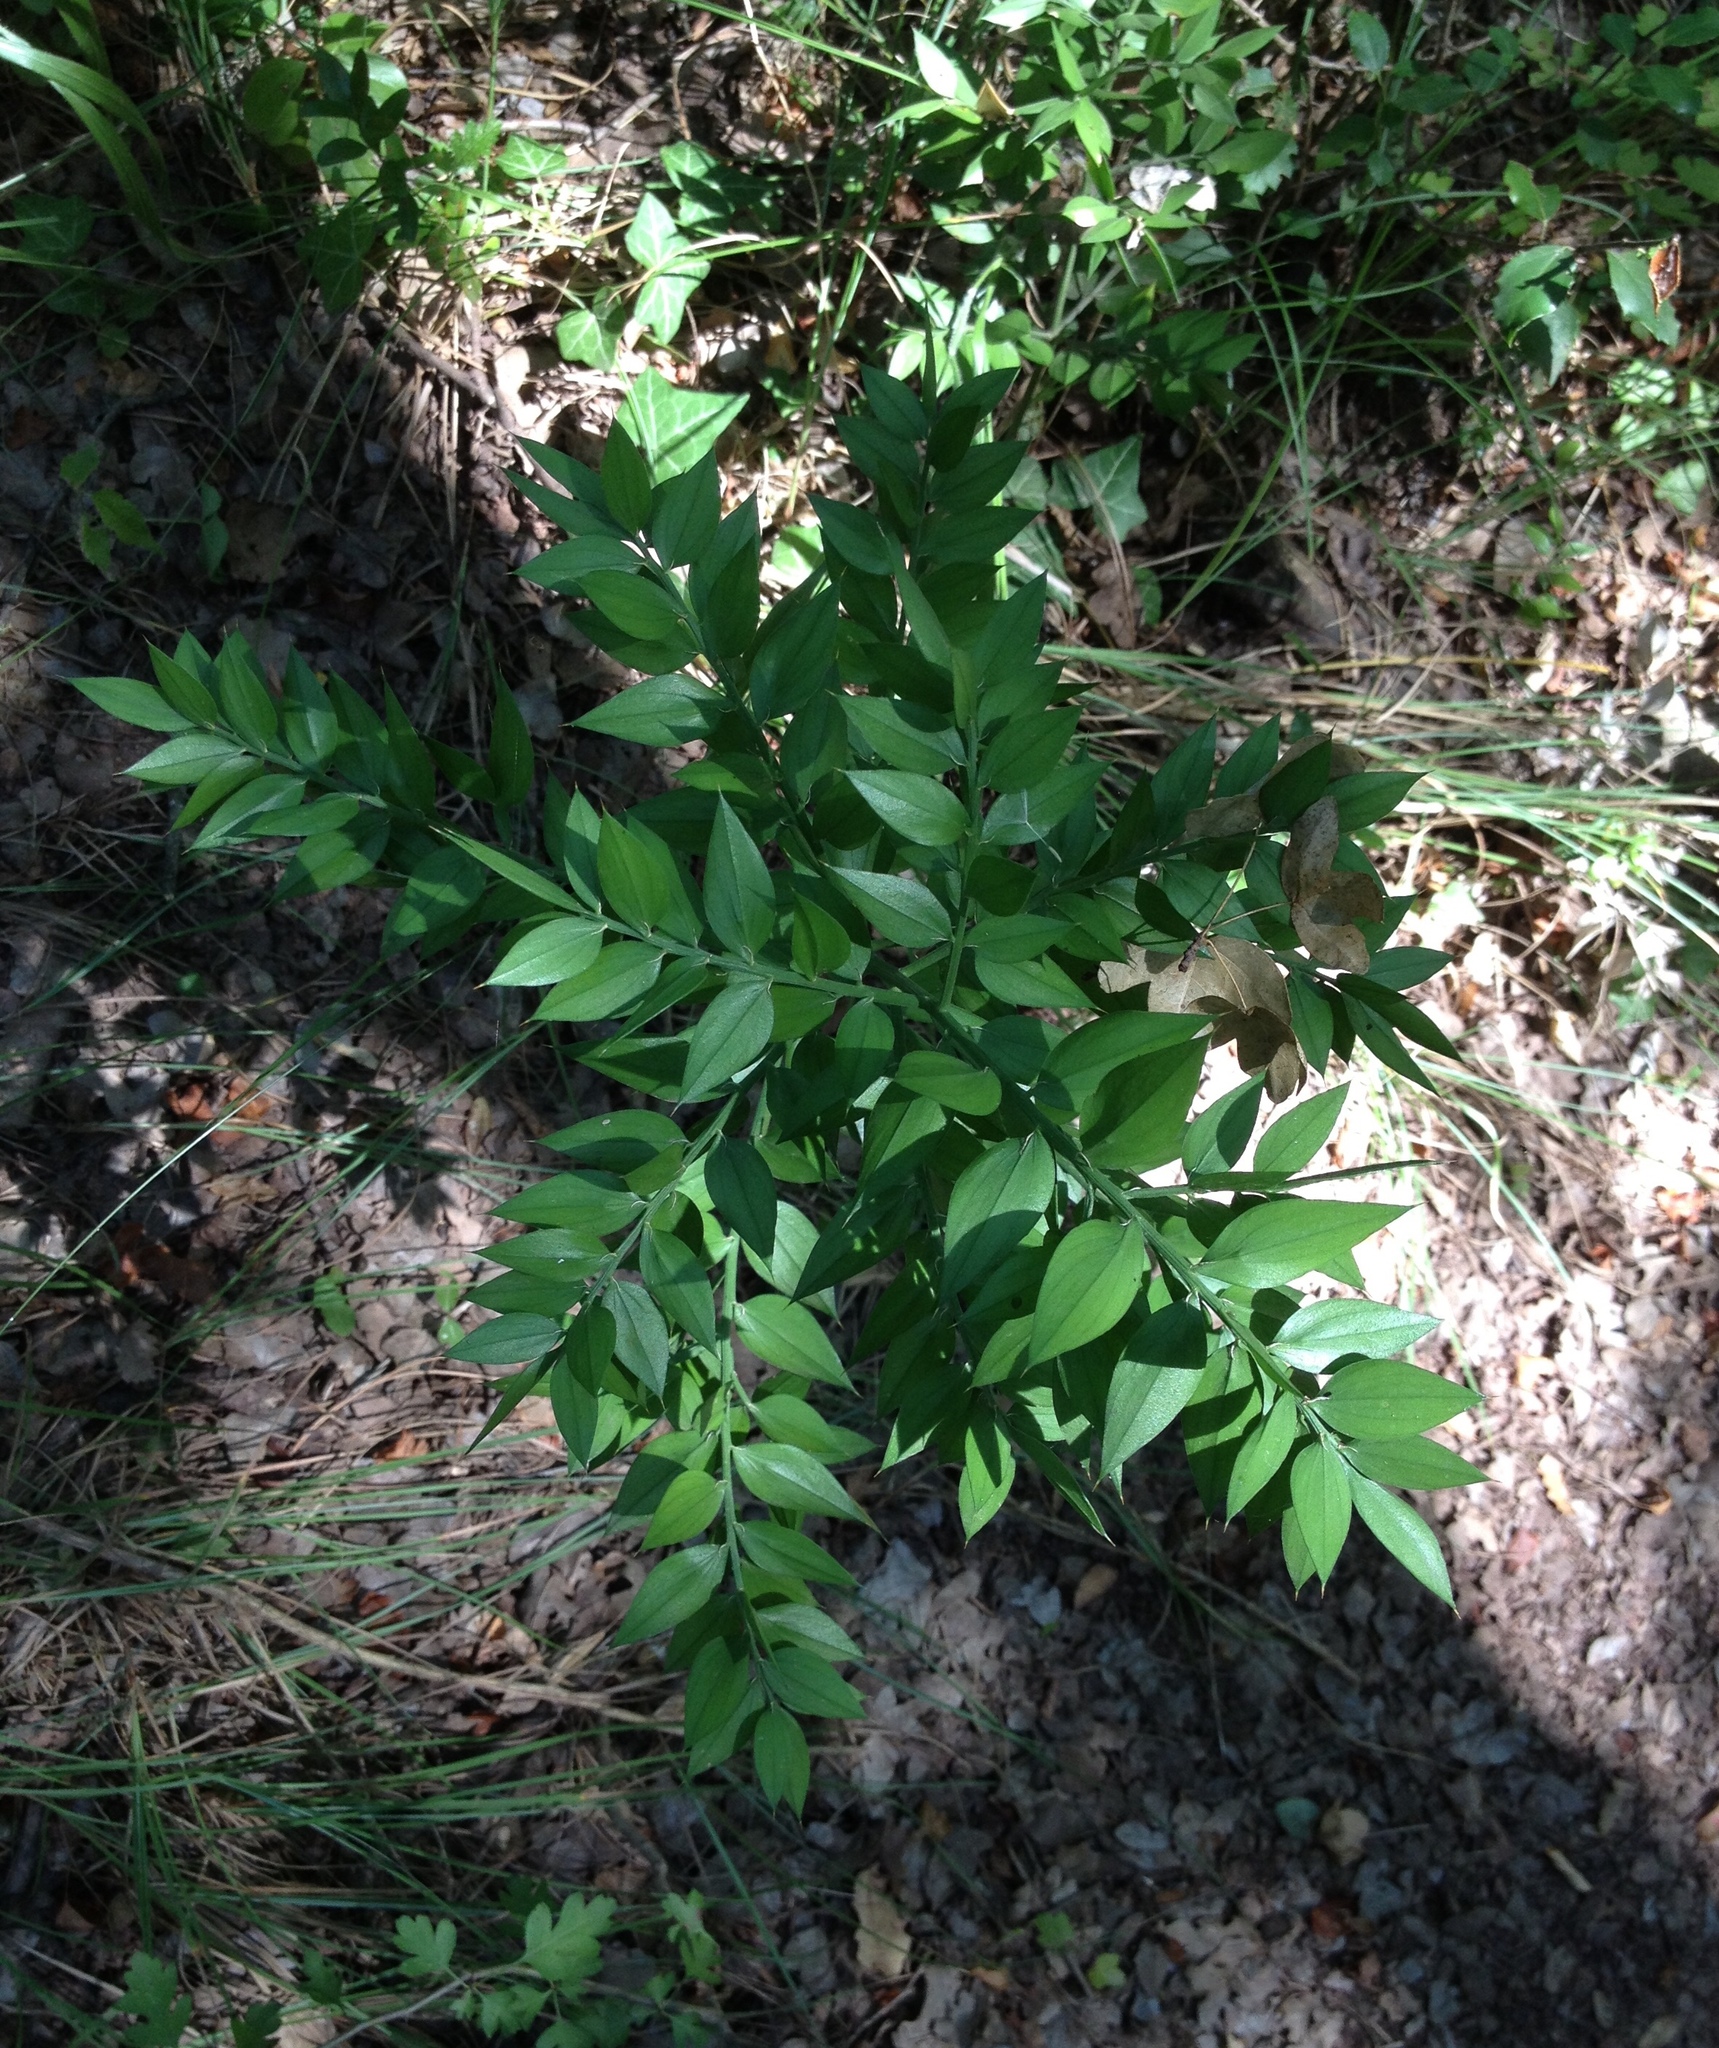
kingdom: Plantae
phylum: Tracheophyta
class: Liliopsida
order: Asparagales
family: Asparagaceae
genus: Ruscus
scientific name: Ruscus aculeatus
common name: Butcher's-broom
